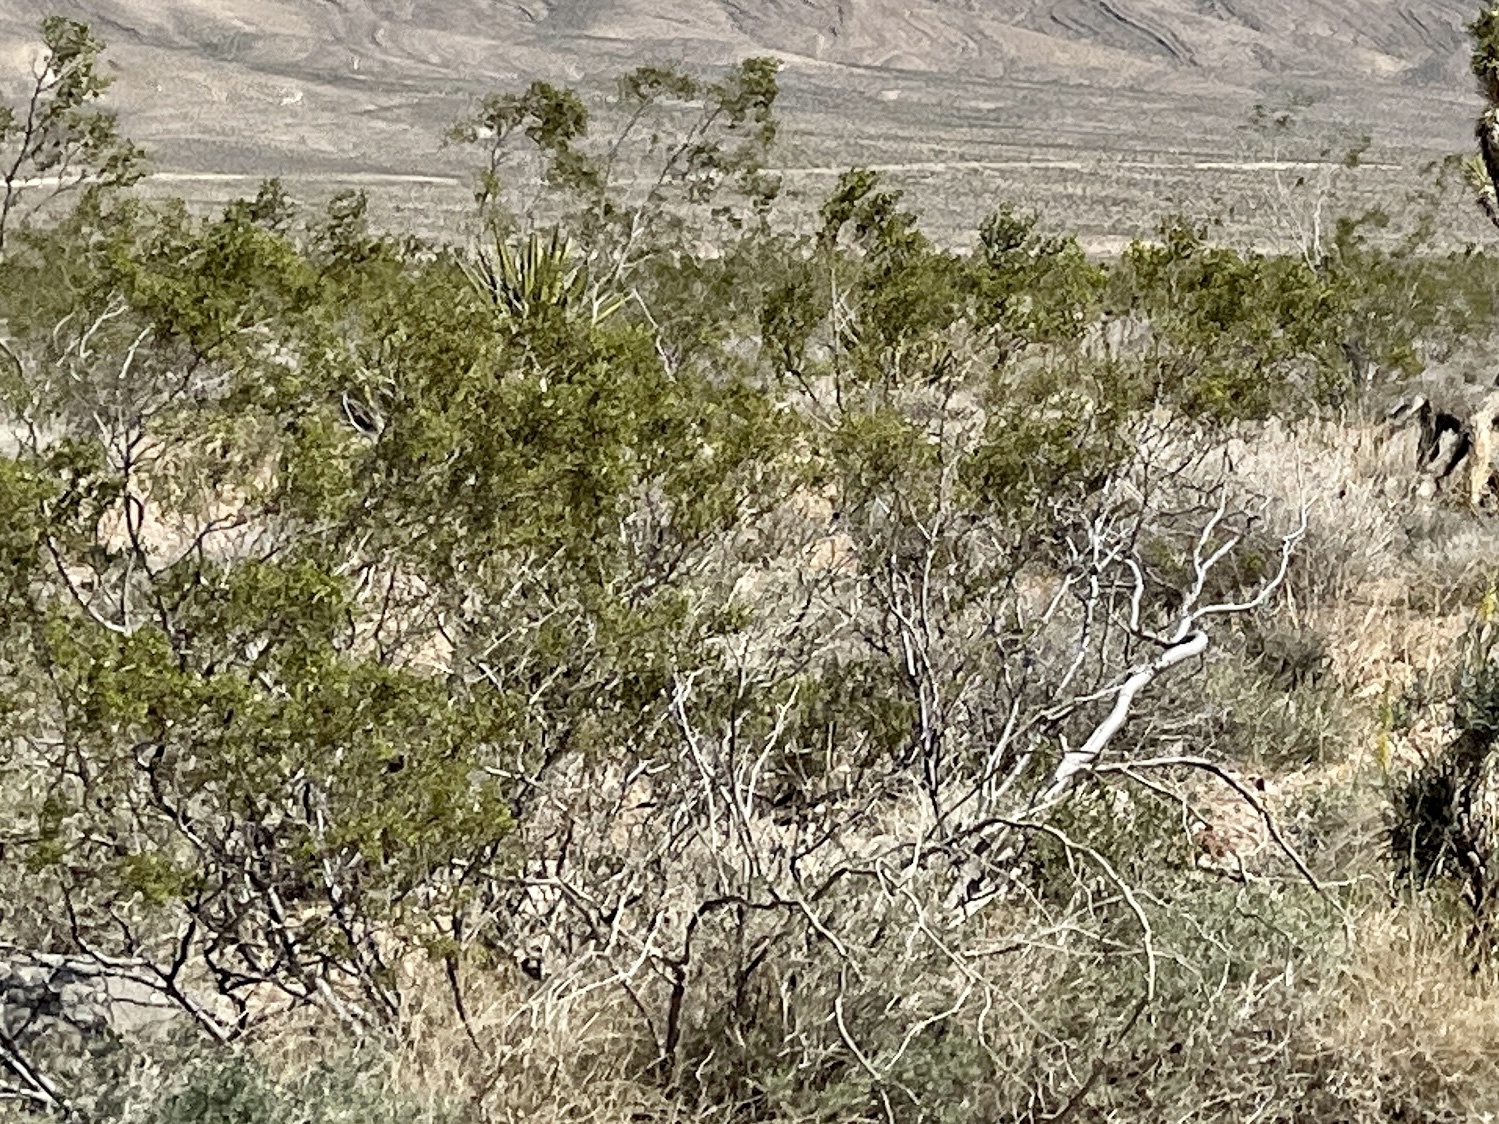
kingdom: Plantae
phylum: Tracheophyta
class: Magnoliopsida
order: Zygophyllales
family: Zygophyllaceae
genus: Larrea
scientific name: Larrea tridentata
